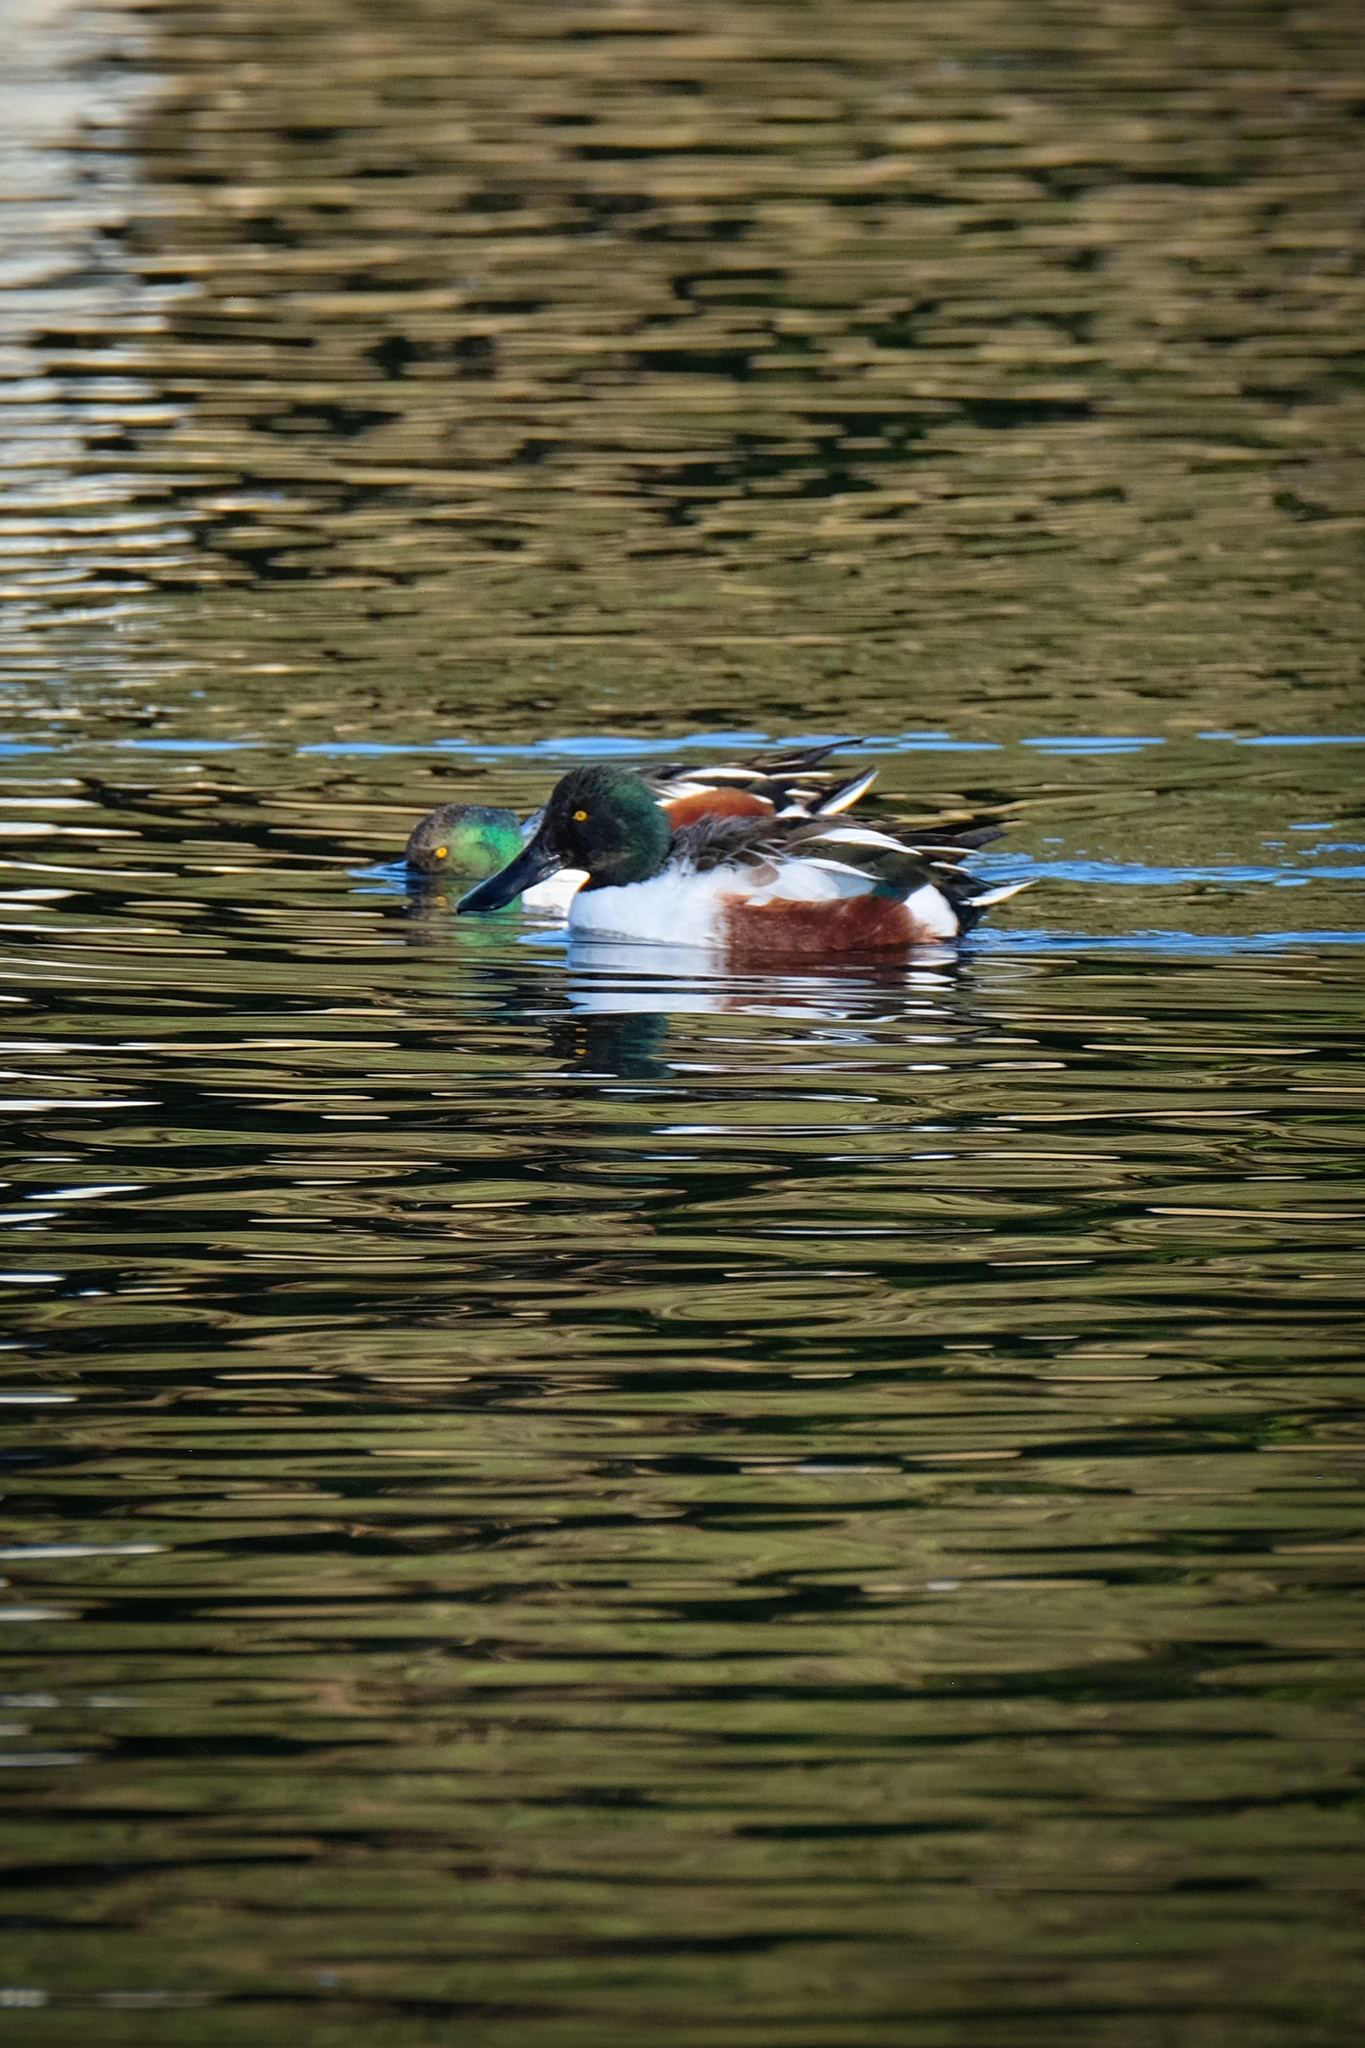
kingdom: Animalia
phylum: Chordata
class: Aves
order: Anseriformes
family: Anatidae
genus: Spatula
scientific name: Spatula clypeata
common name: Northern shoveler
